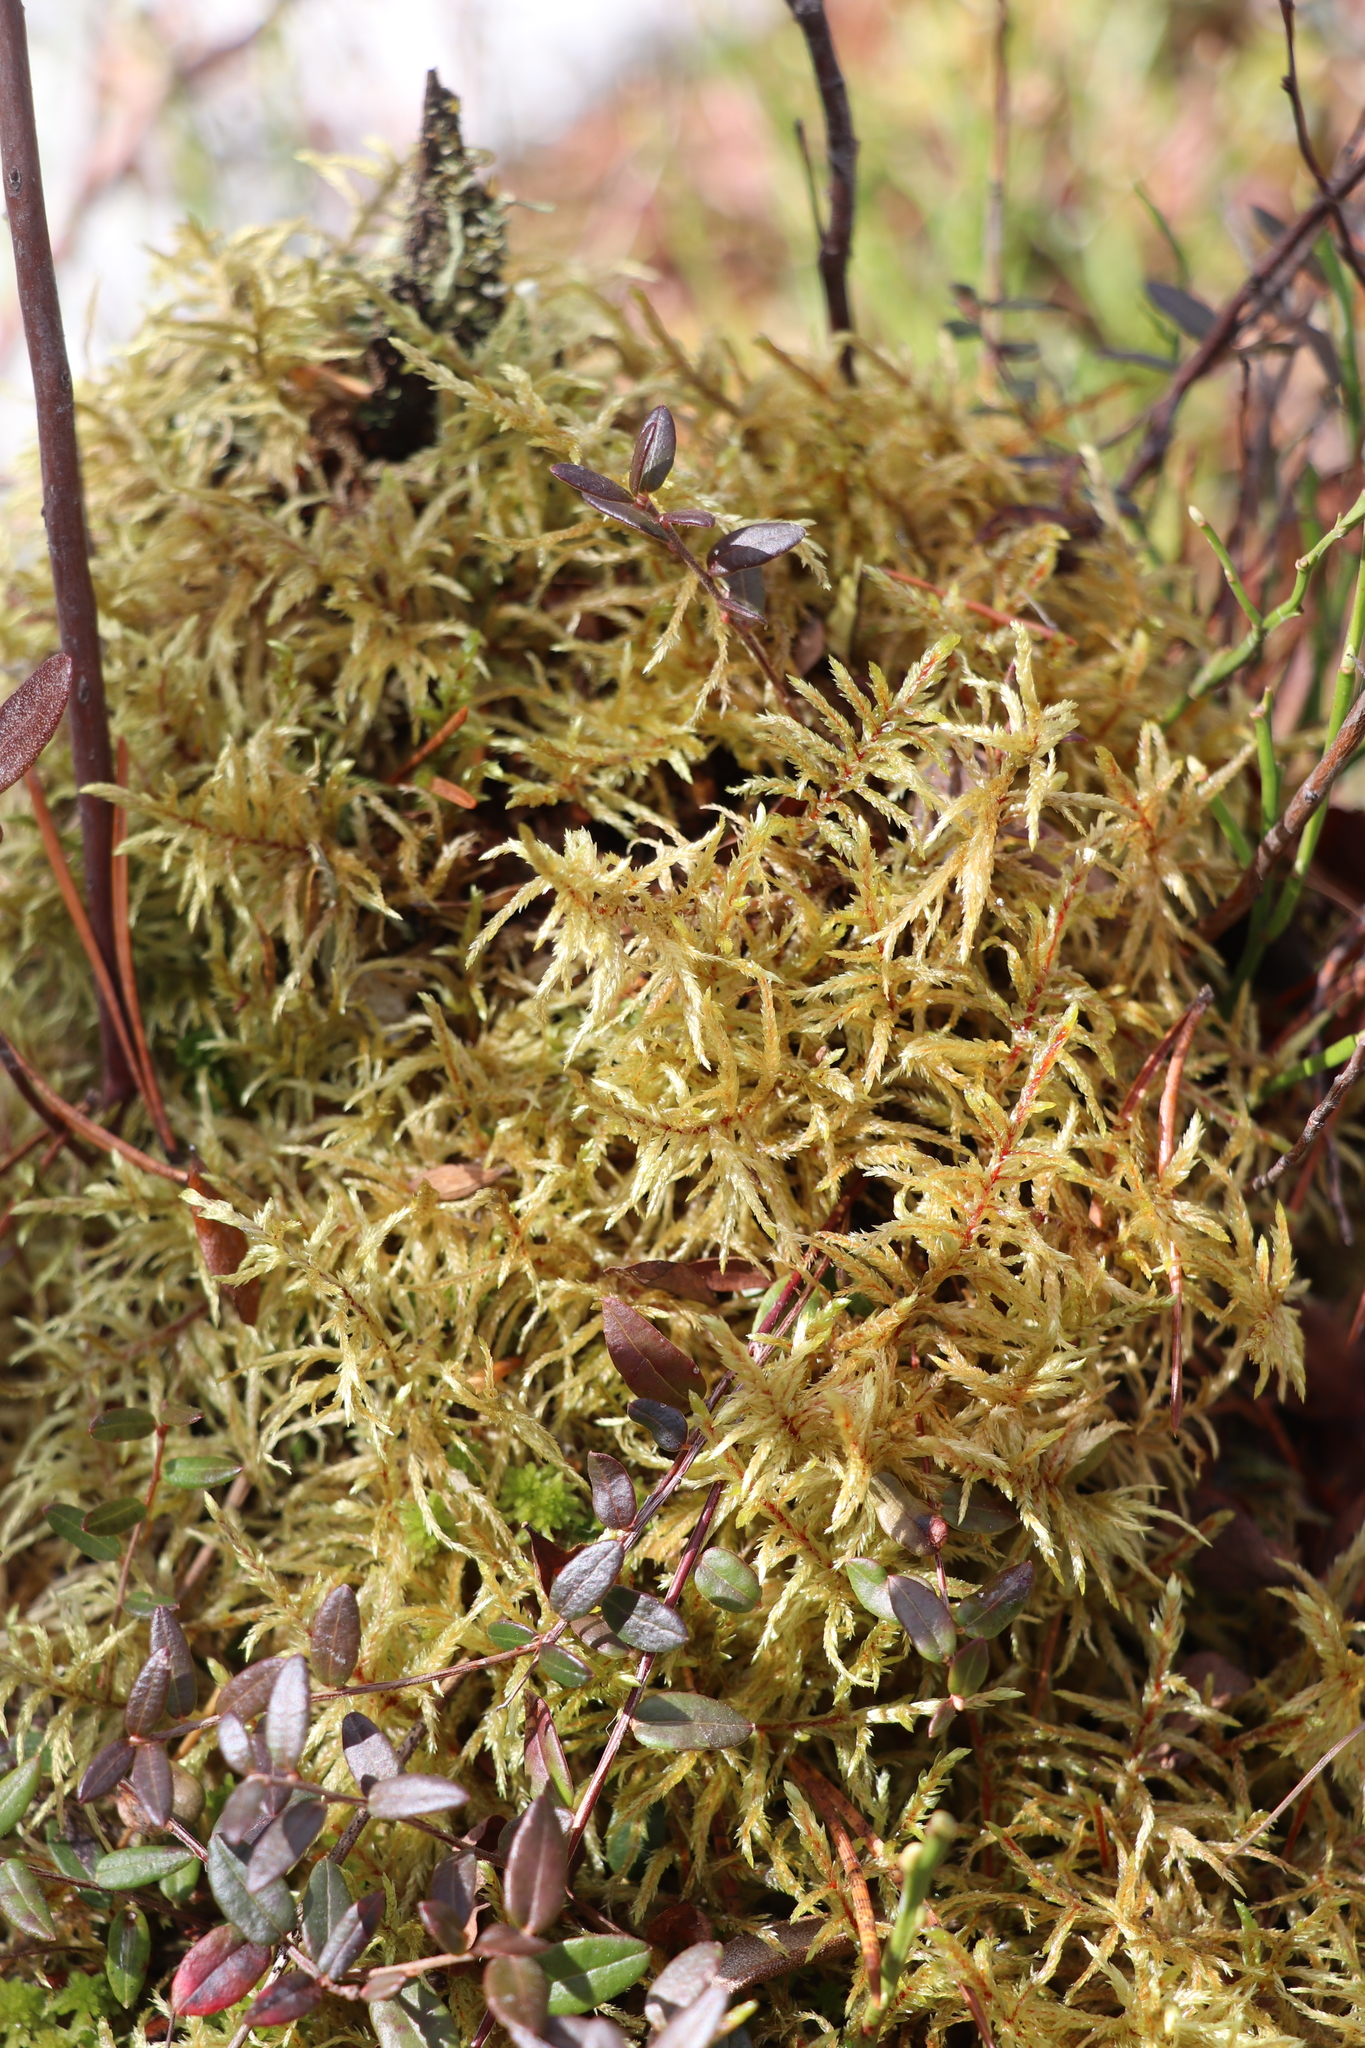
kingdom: Plantae
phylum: Bryophyta
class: Bryopsida
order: Hypnales
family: Hylocomiaceae
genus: Pleurozium
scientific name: Pleurozium schreberi
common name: Red-stemmed feather moss
